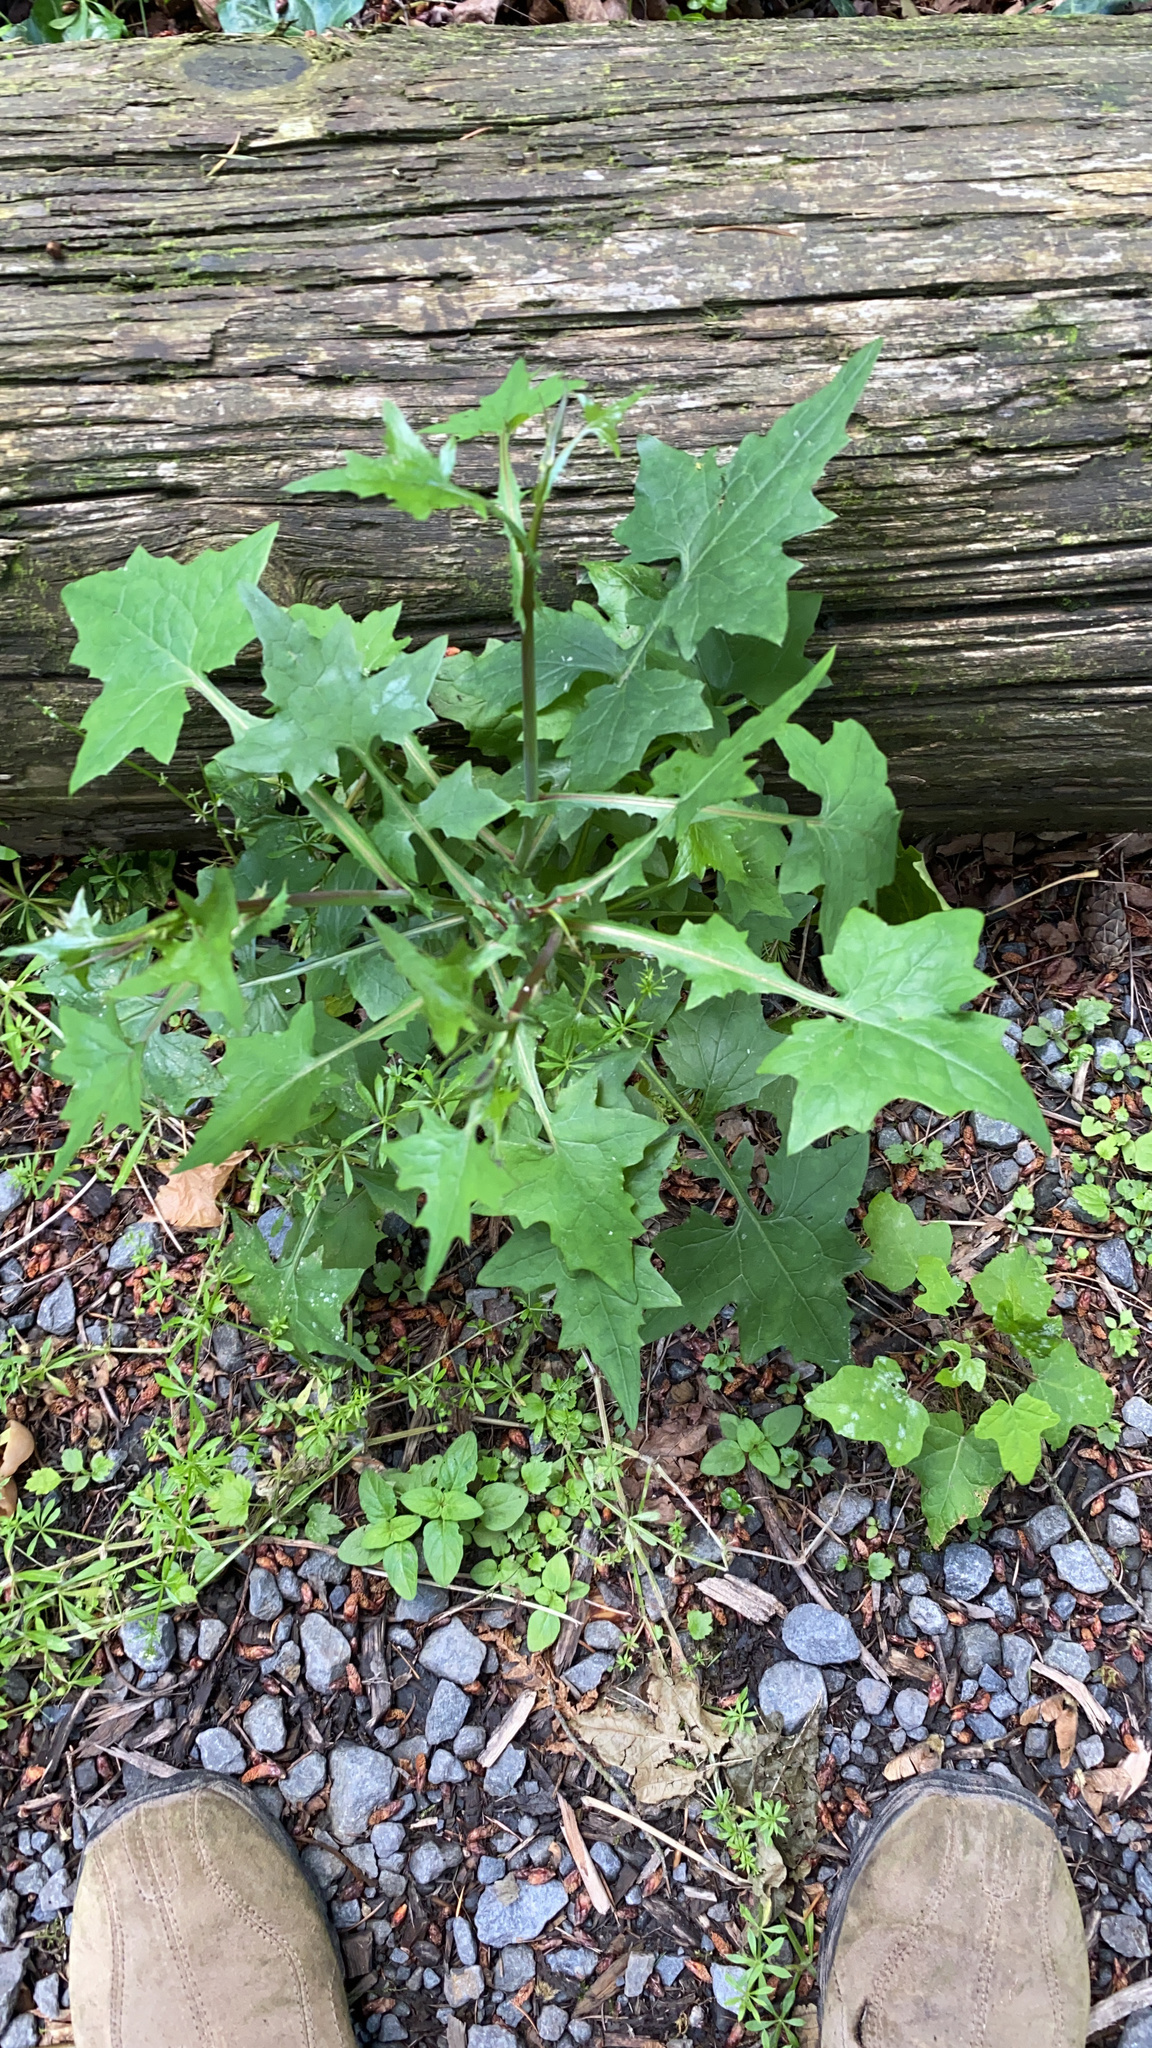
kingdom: Plantae
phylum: Tracheophyta
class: Magnoliopsida
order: Asterales
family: Asteraceae
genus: Mycelis
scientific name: Mycelis muralis
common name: Wall lettuce
